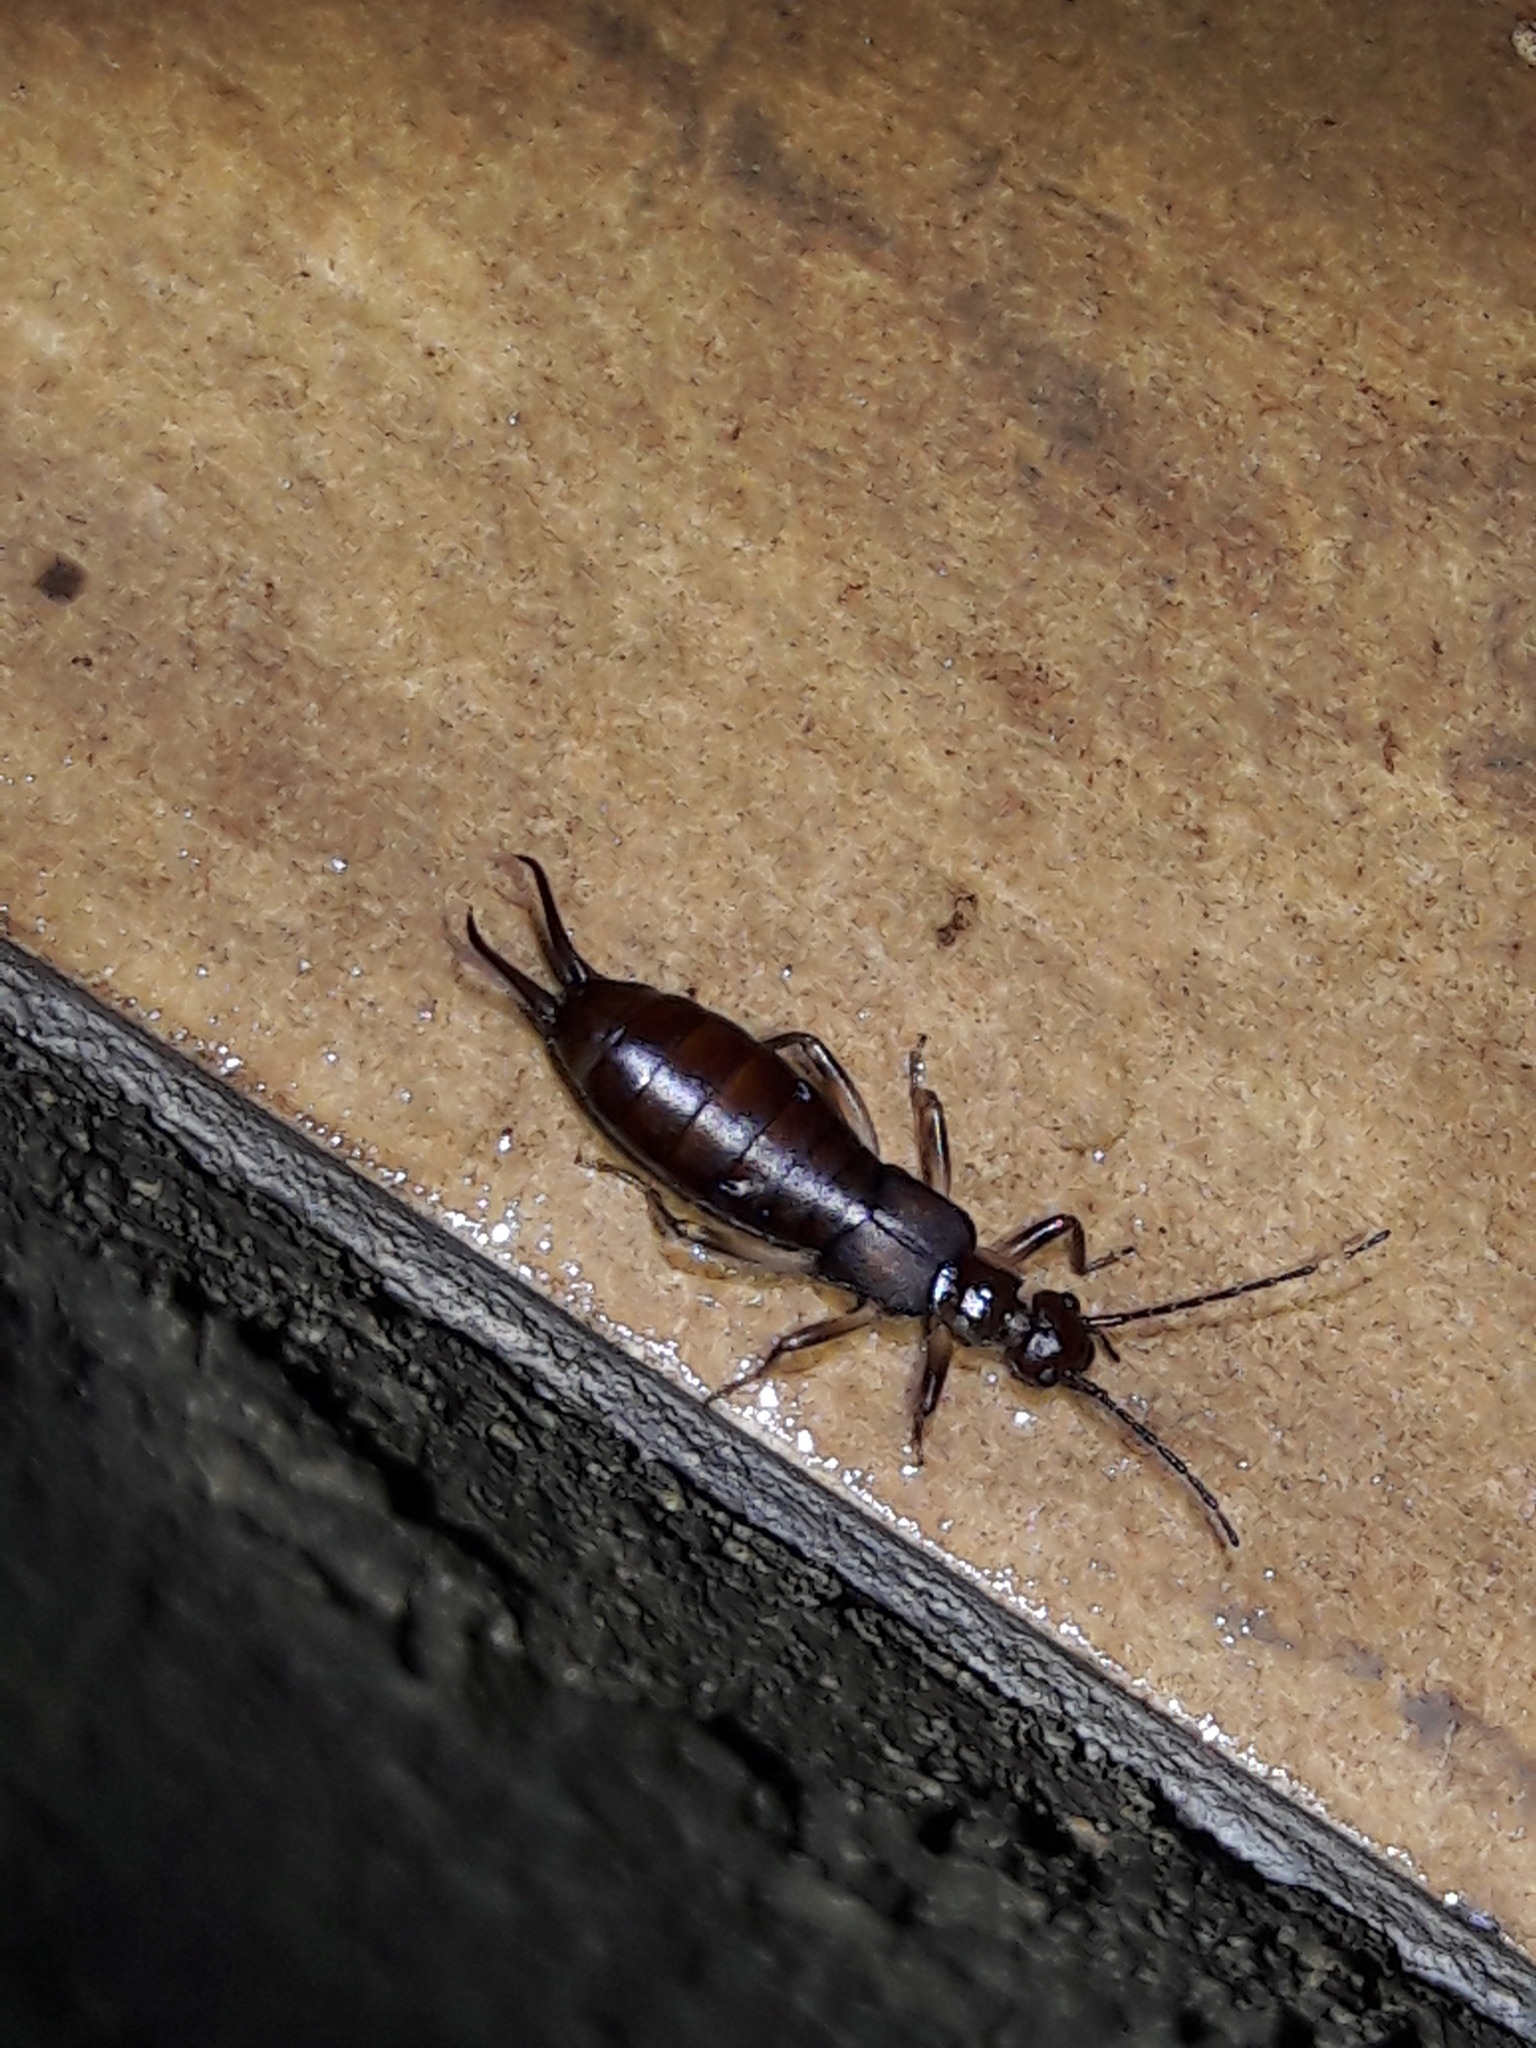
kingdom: Animalia
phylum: Arthropoda
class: Insecta
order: Dermaptera
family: Forficulidae
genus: Cosmiella
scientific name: Cosmiella brasiliensis
